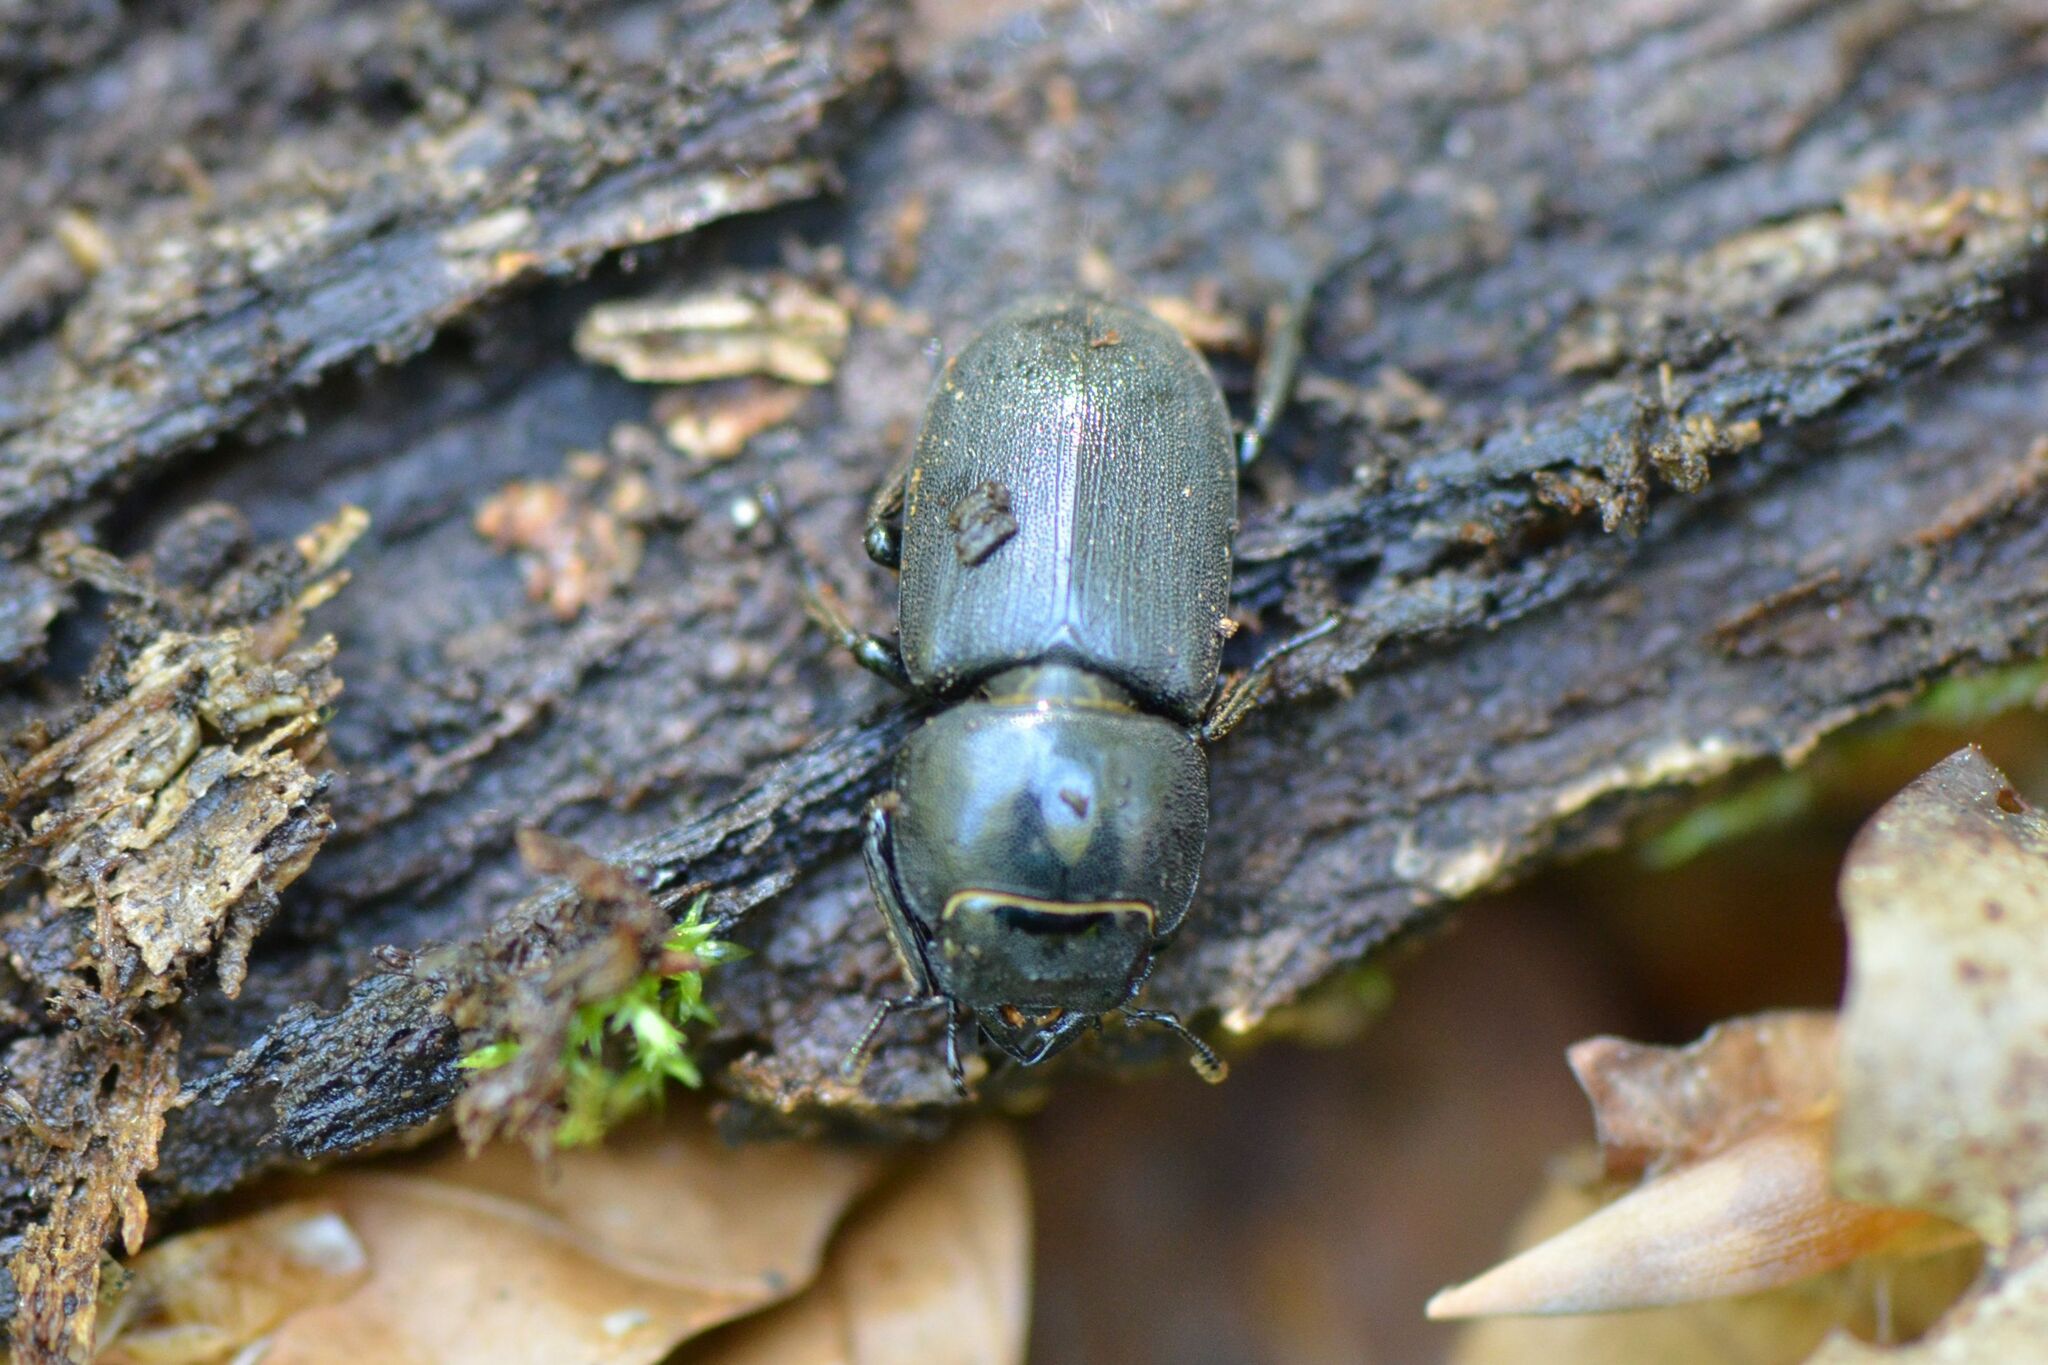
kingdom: Animalia
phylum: Arthropoda
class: Insecta
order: Coleoptera
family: Lucanidae
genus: Dorcus
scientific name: Dorcus parallelipipedus
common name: Lesser stag beetle
